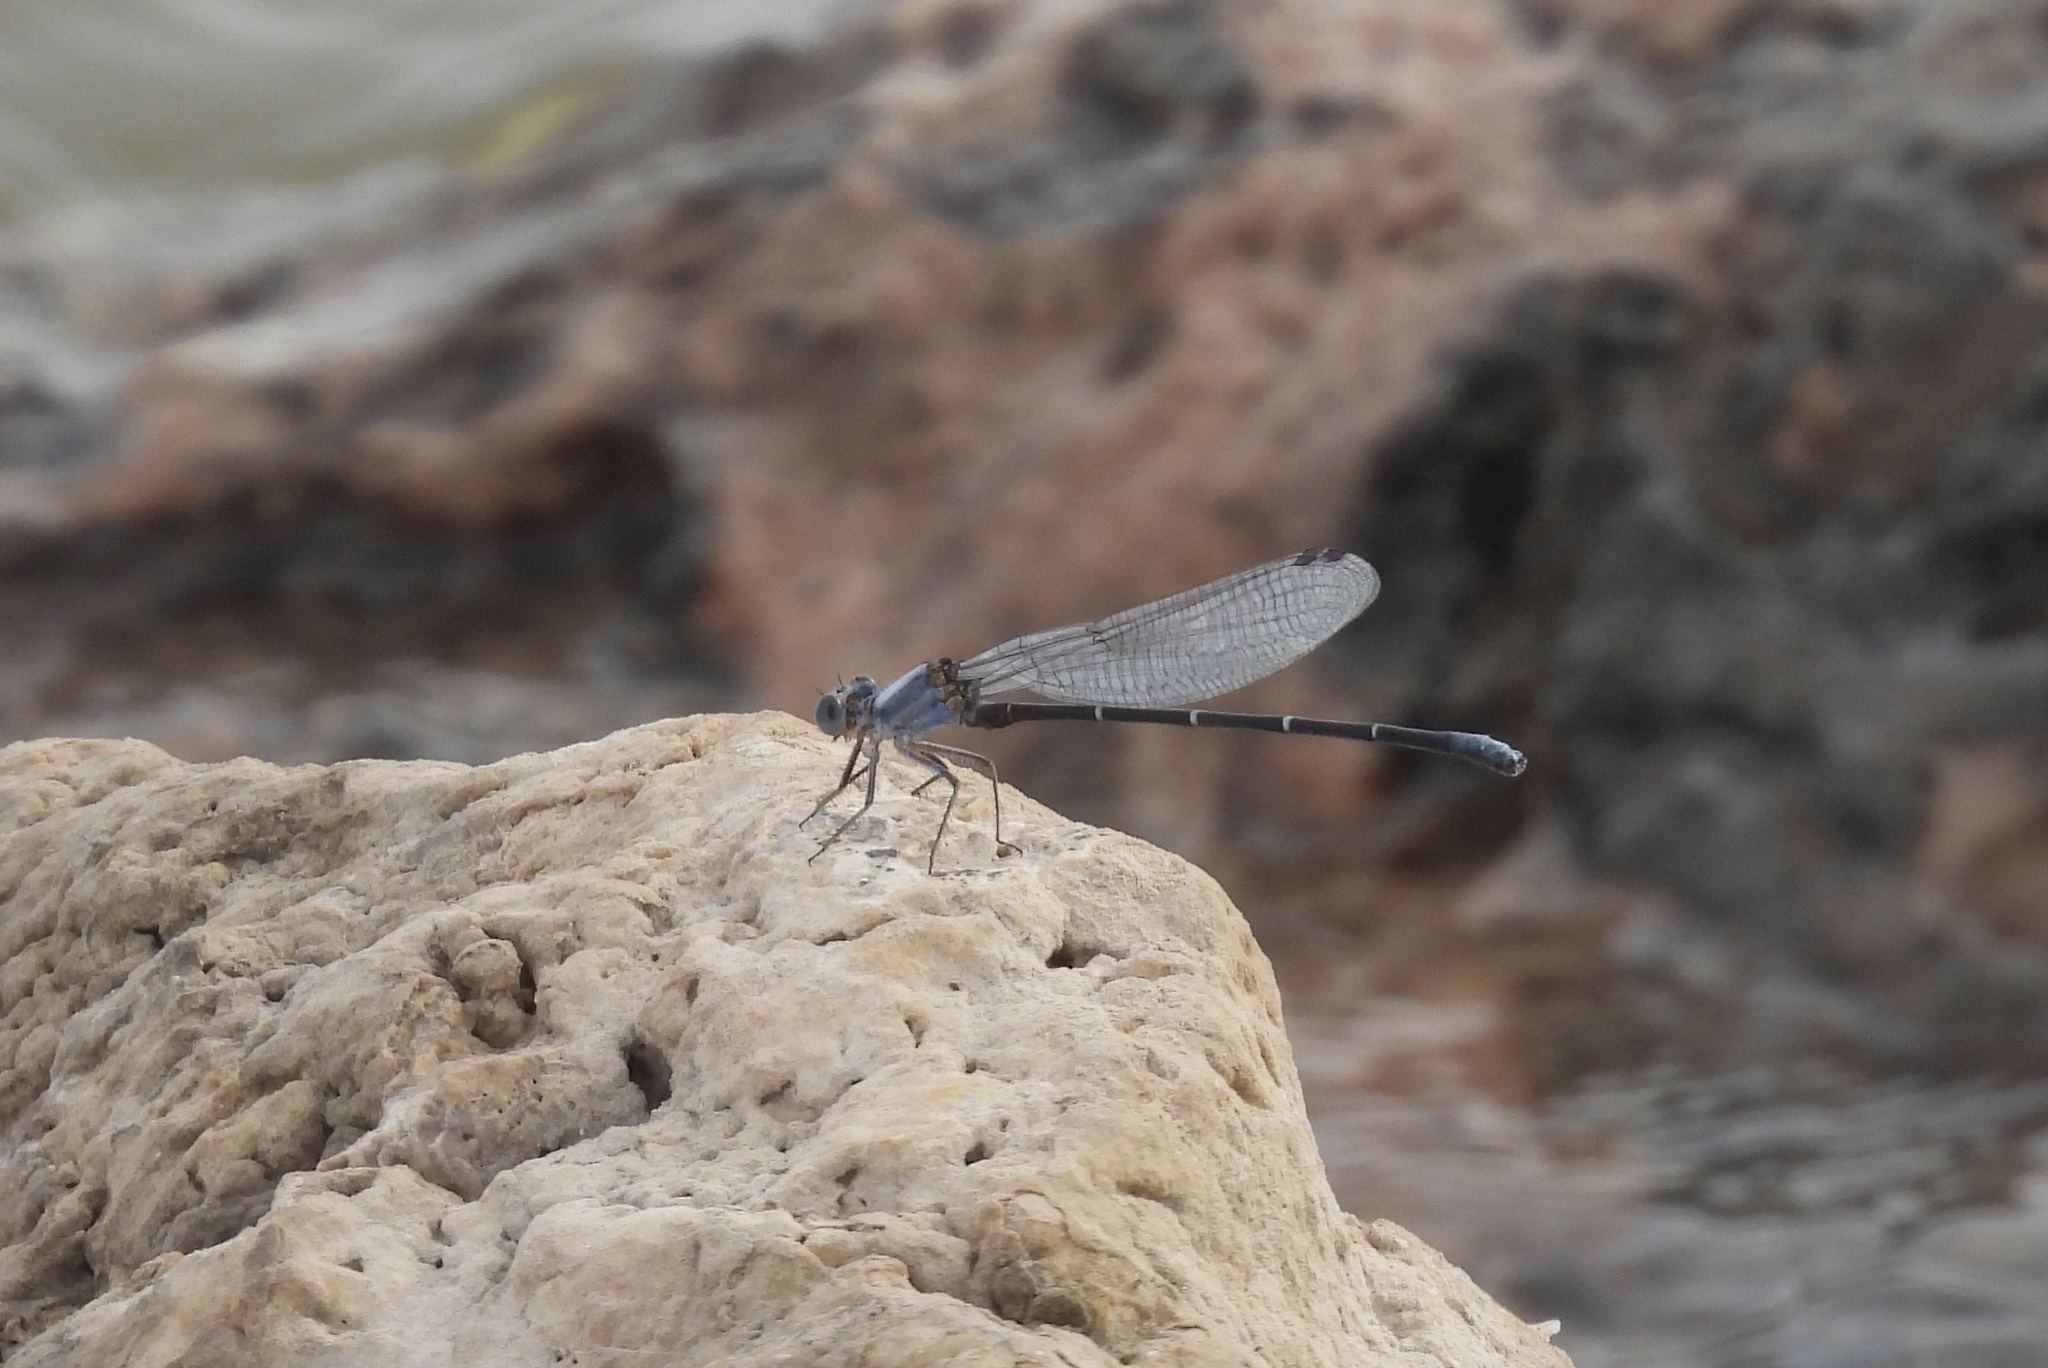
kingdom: Animalia
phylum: Arthropoda
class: Insecta
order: Odonata
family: Coenagrionidae
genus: Argia
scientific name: Argia moesta
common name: Powdered dancer
